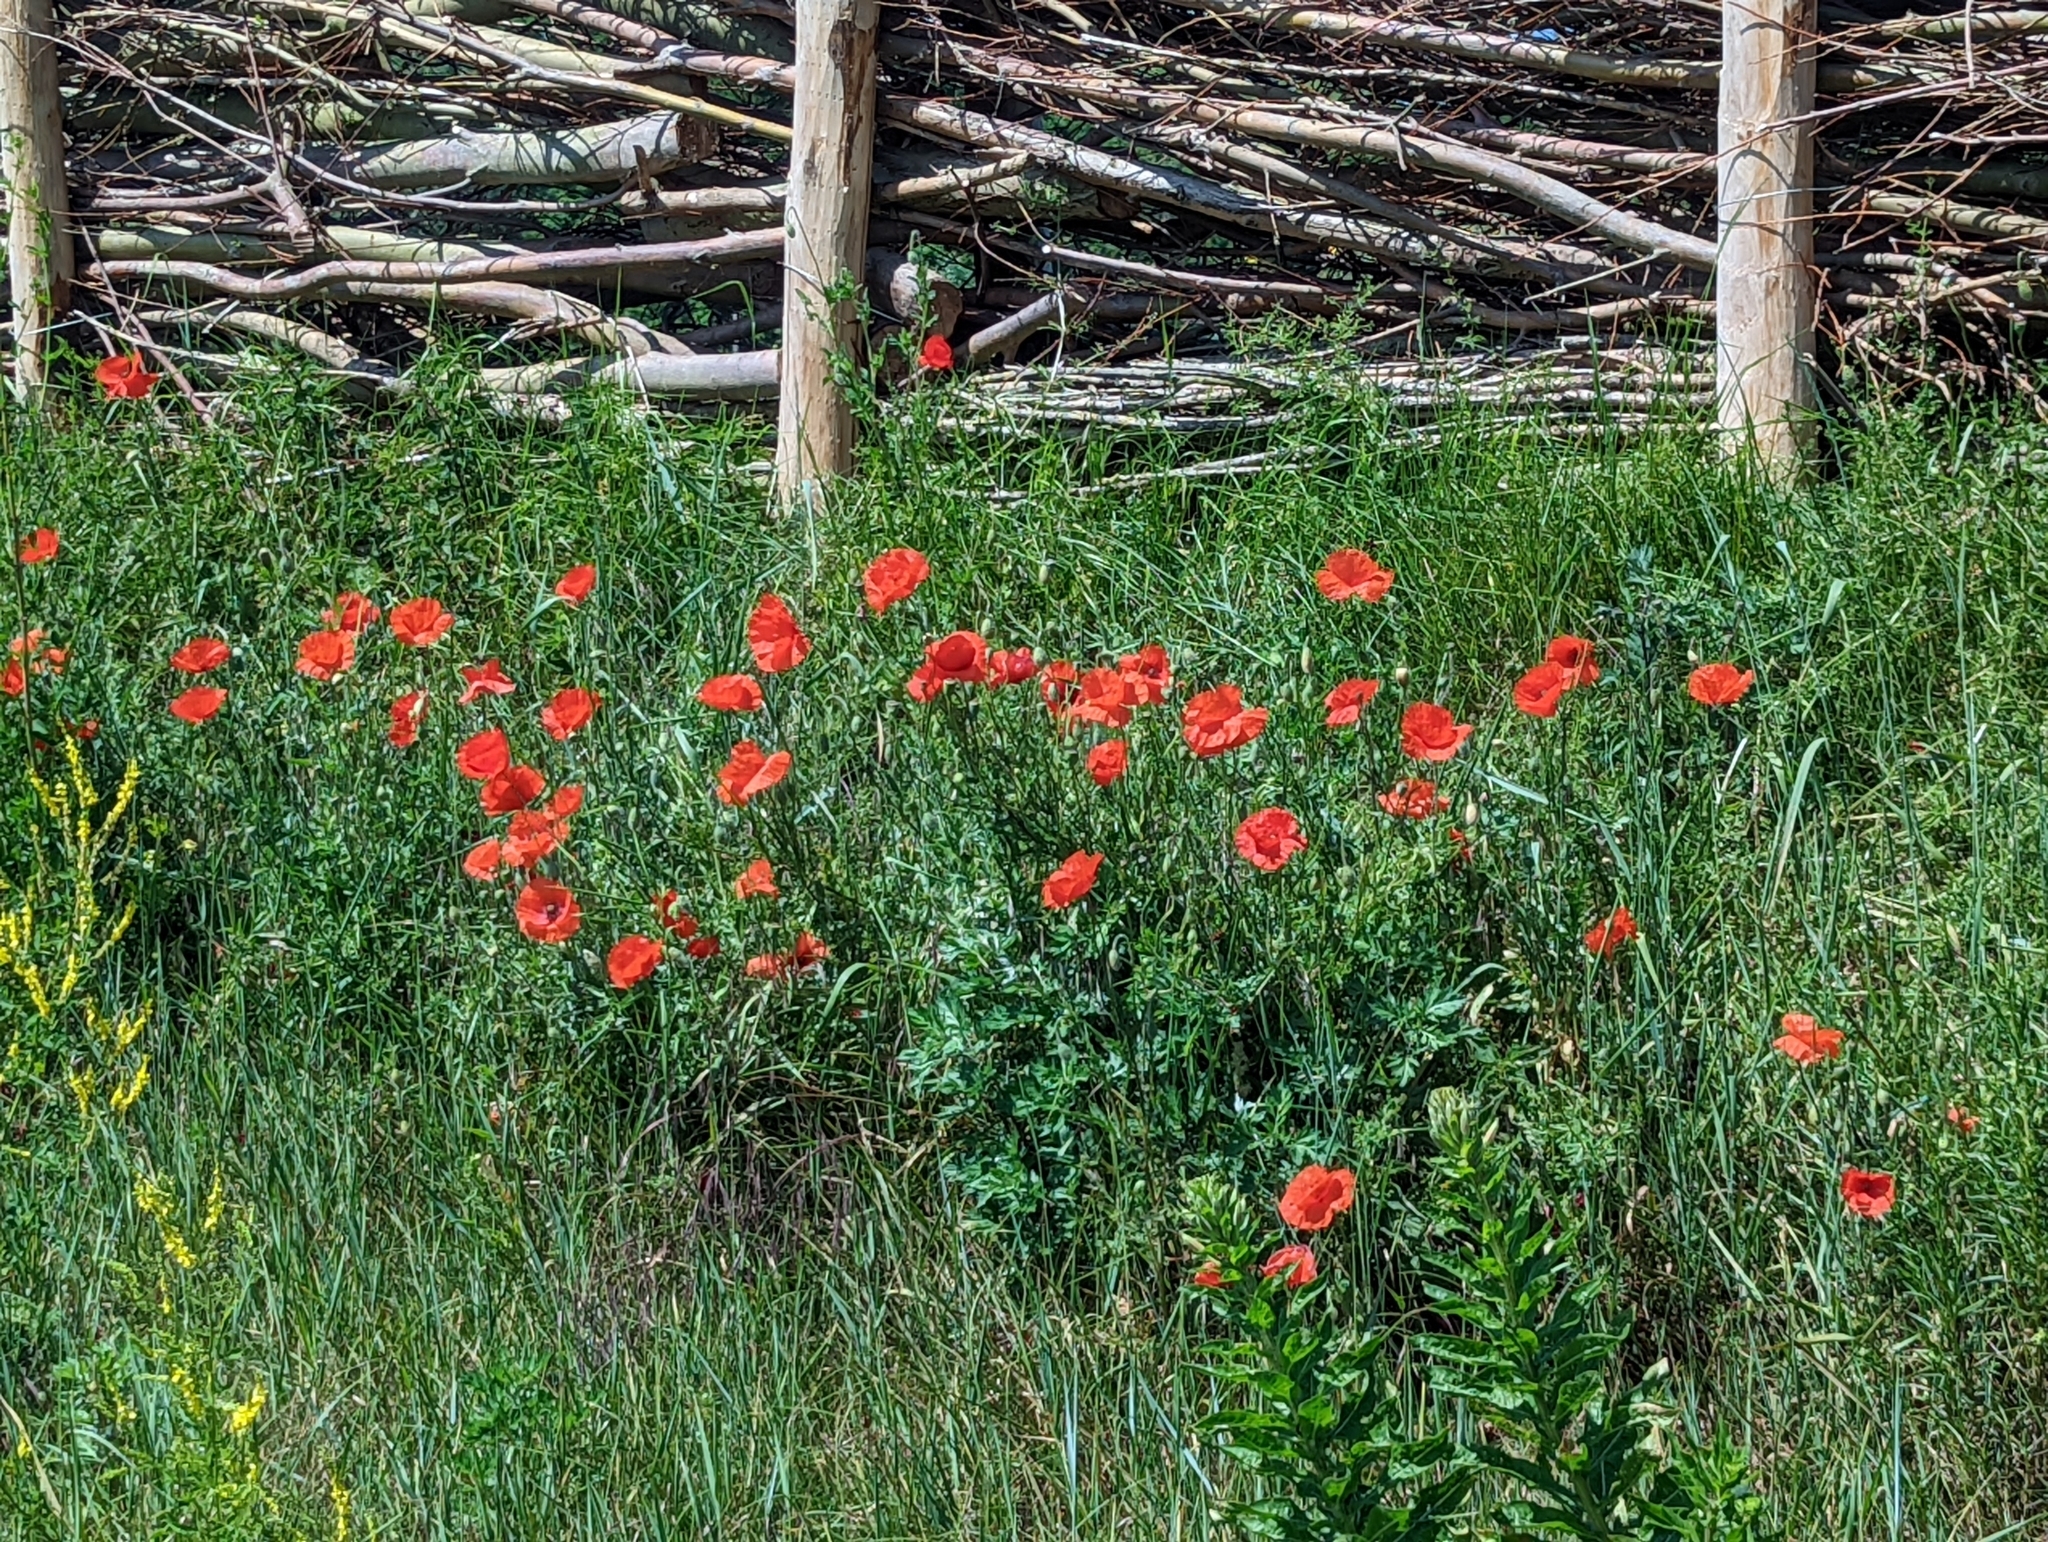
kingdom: Plantae
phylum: Tracheophyta
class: Magnoliopsida
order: Ranunculales
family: Papaveraceae
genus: Papaver
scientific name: Papaver rhoeas
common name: Corn poppy
